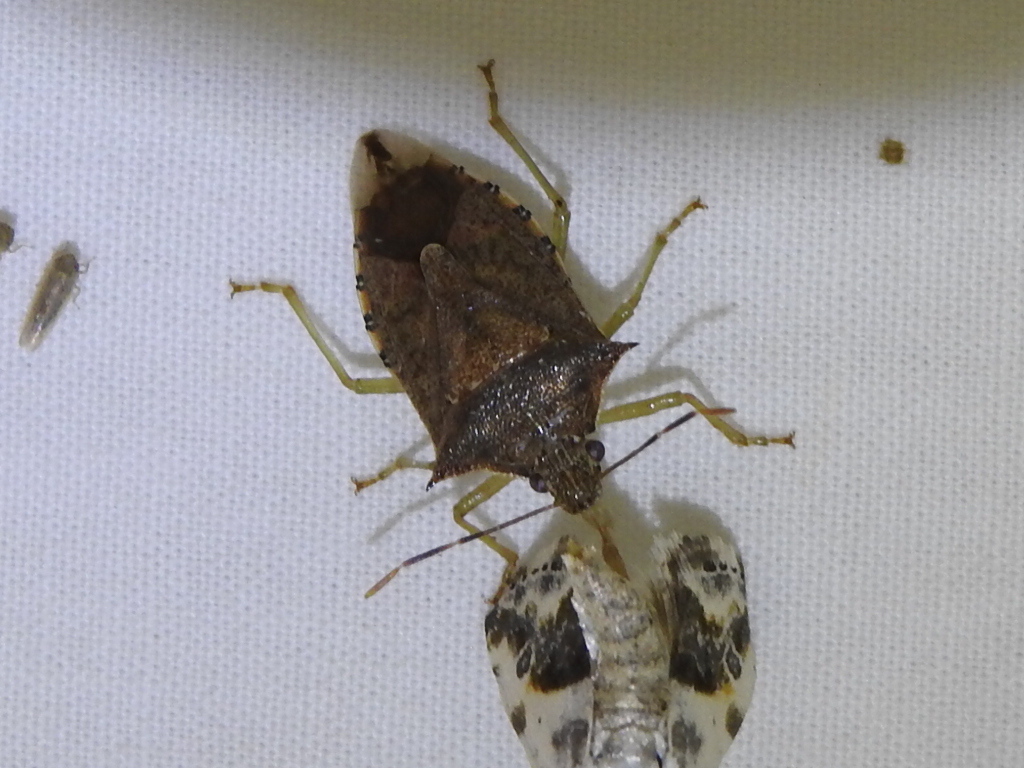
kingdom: Animalia
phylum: Arthropoda
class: Insecta
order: Hemiptera
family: Pentatomidae
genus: Podisus
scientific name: Podisus maculiventris
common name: Spined soldier bug
